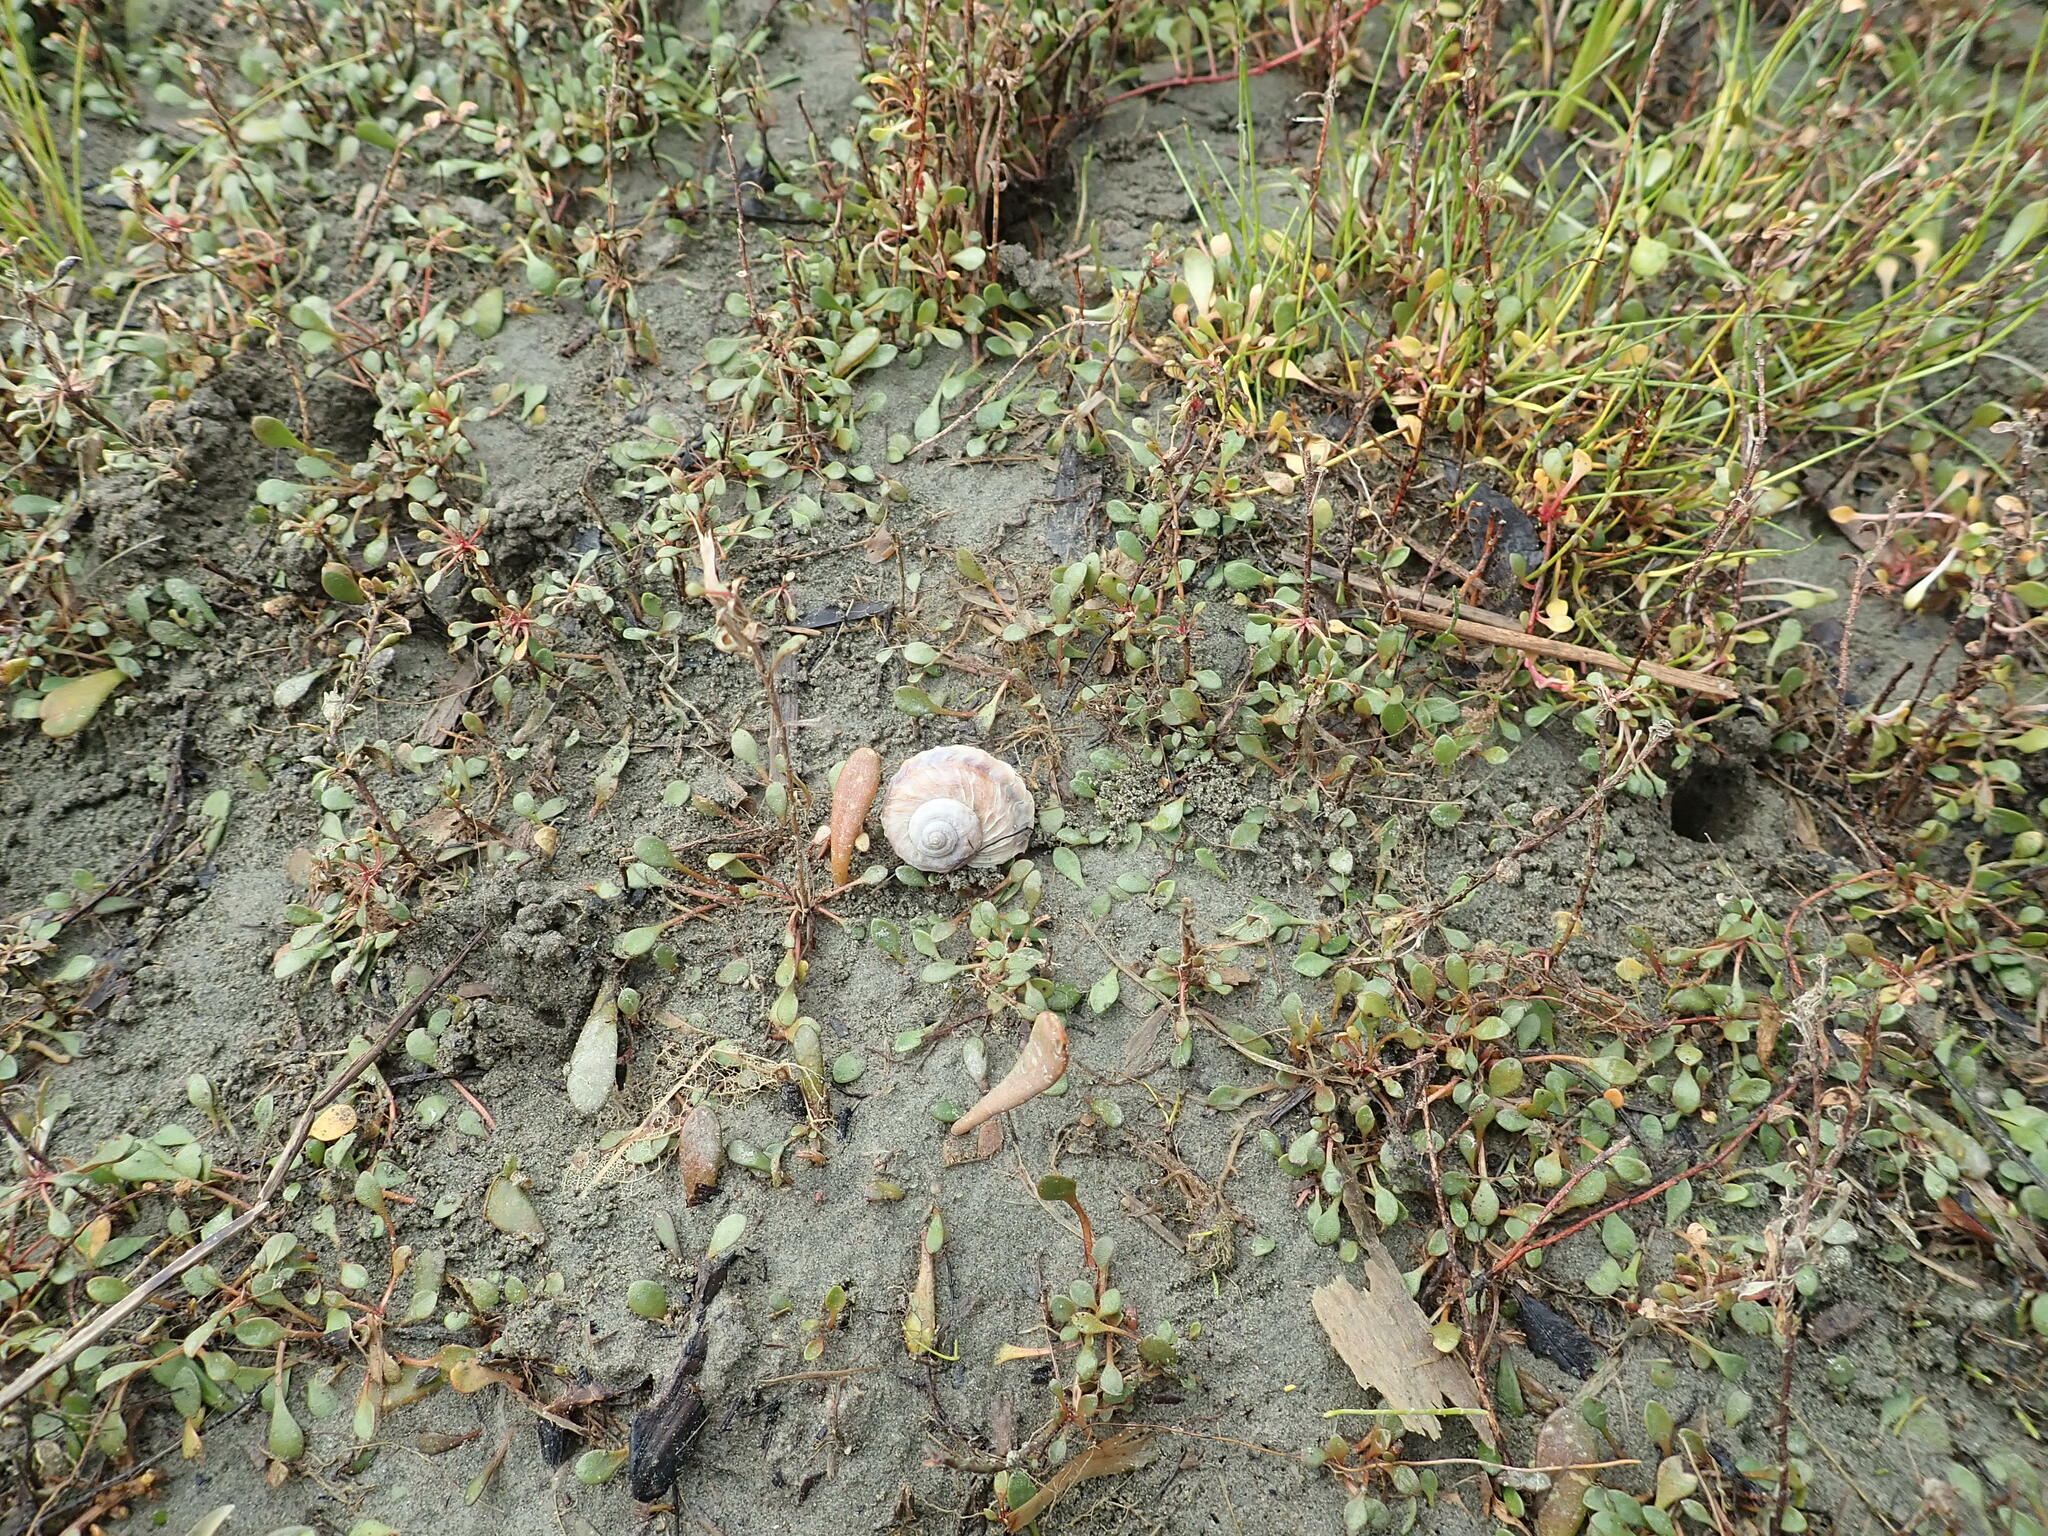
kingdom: Animalia
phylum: Mollusca
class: Gastropoda
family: Amphibolidae
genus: Amphibola
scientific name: Amphibola crenata
